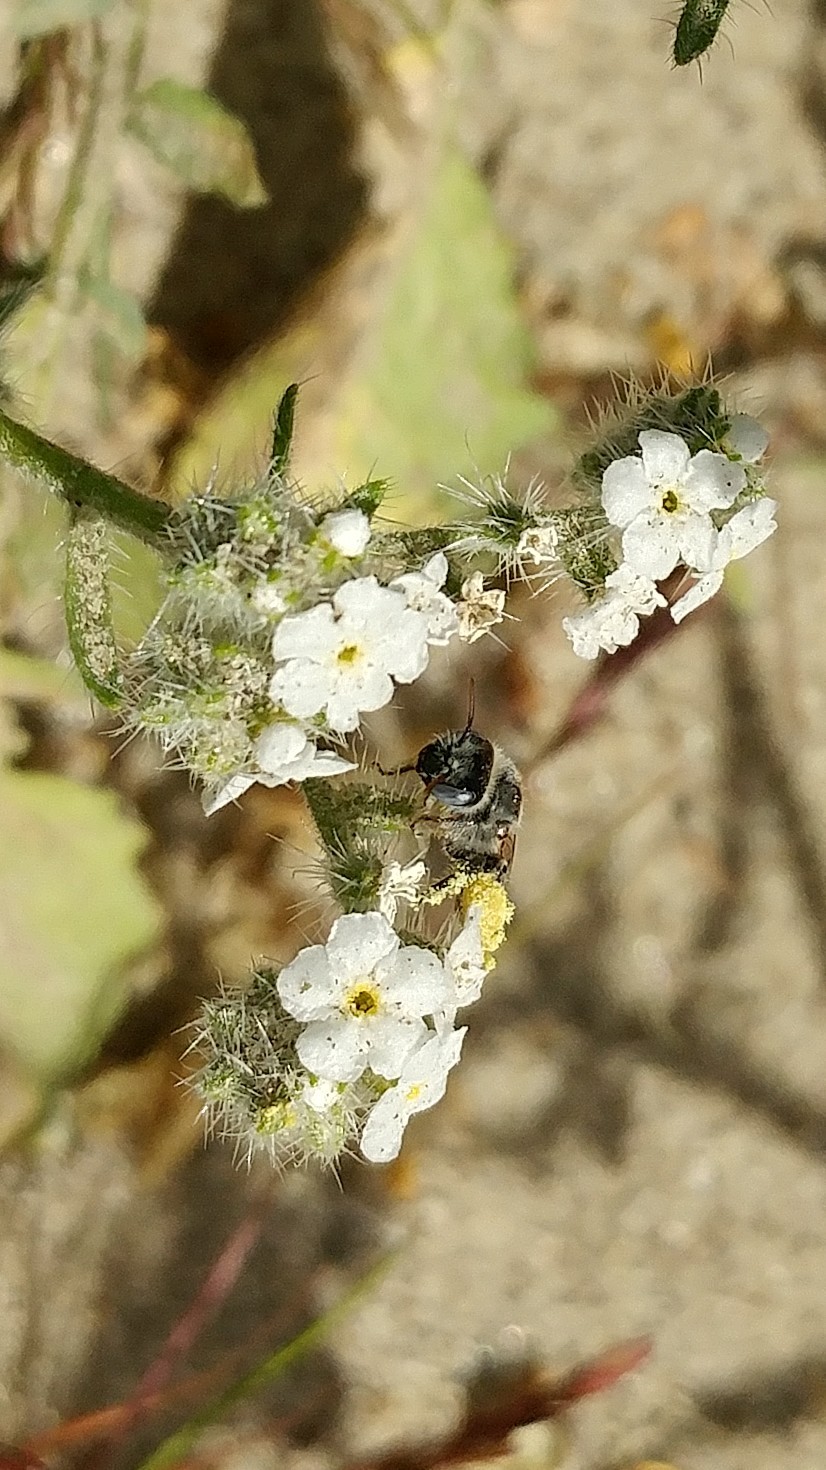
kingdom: Plantae
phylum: Tracheophyta
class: Magnoliopsida
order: Boraginales
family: Boraginaceae
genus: Johnstonella
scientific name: Johnstonella angustifolia
